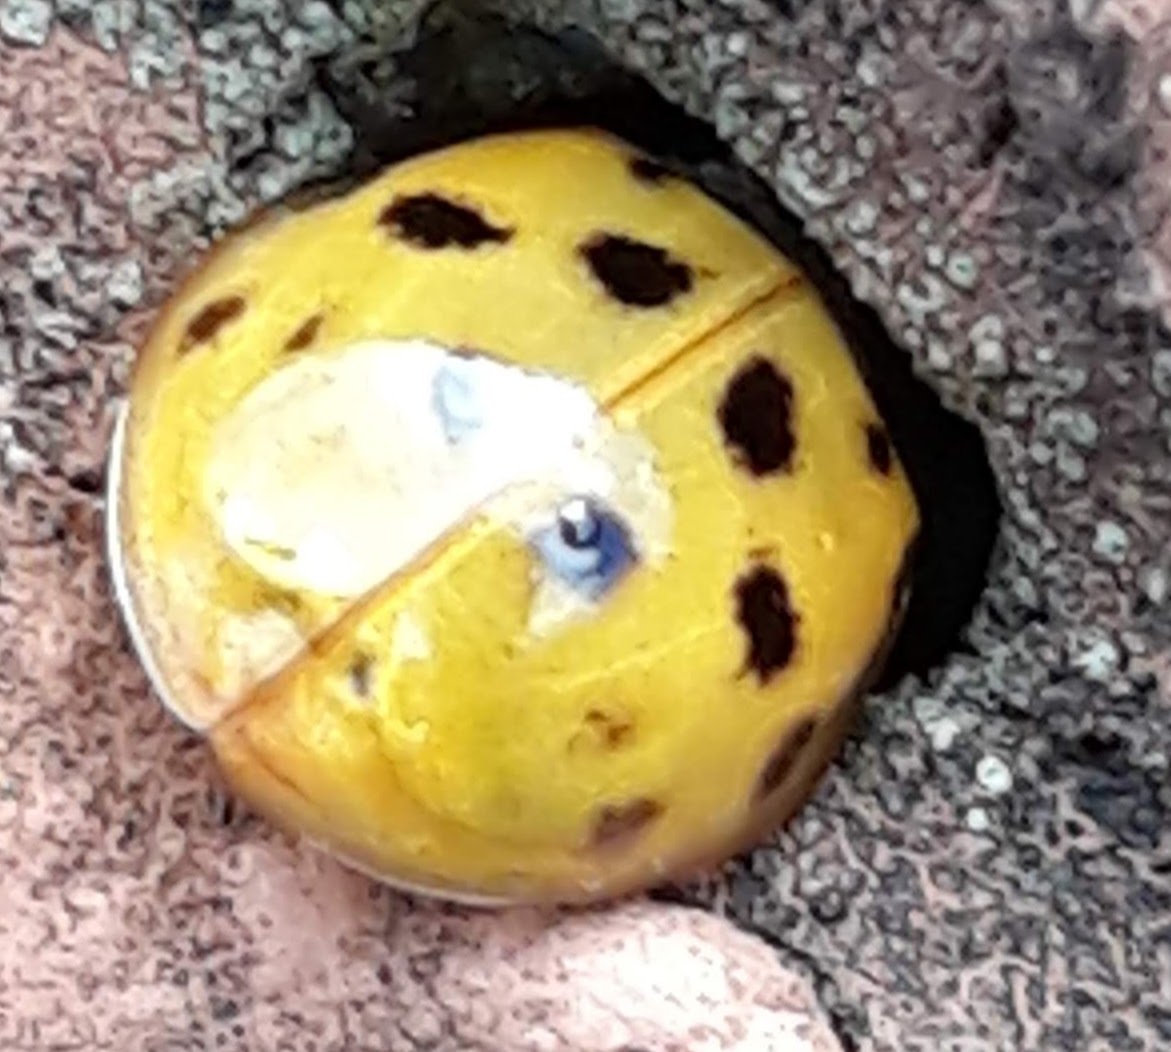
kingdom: Animalia
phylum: Arthropoda
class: Insecta
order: Coleoptera
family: Coccinellidae
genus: Harmonia
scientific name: Harmonia axyridis
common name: Harlequin ladybird
